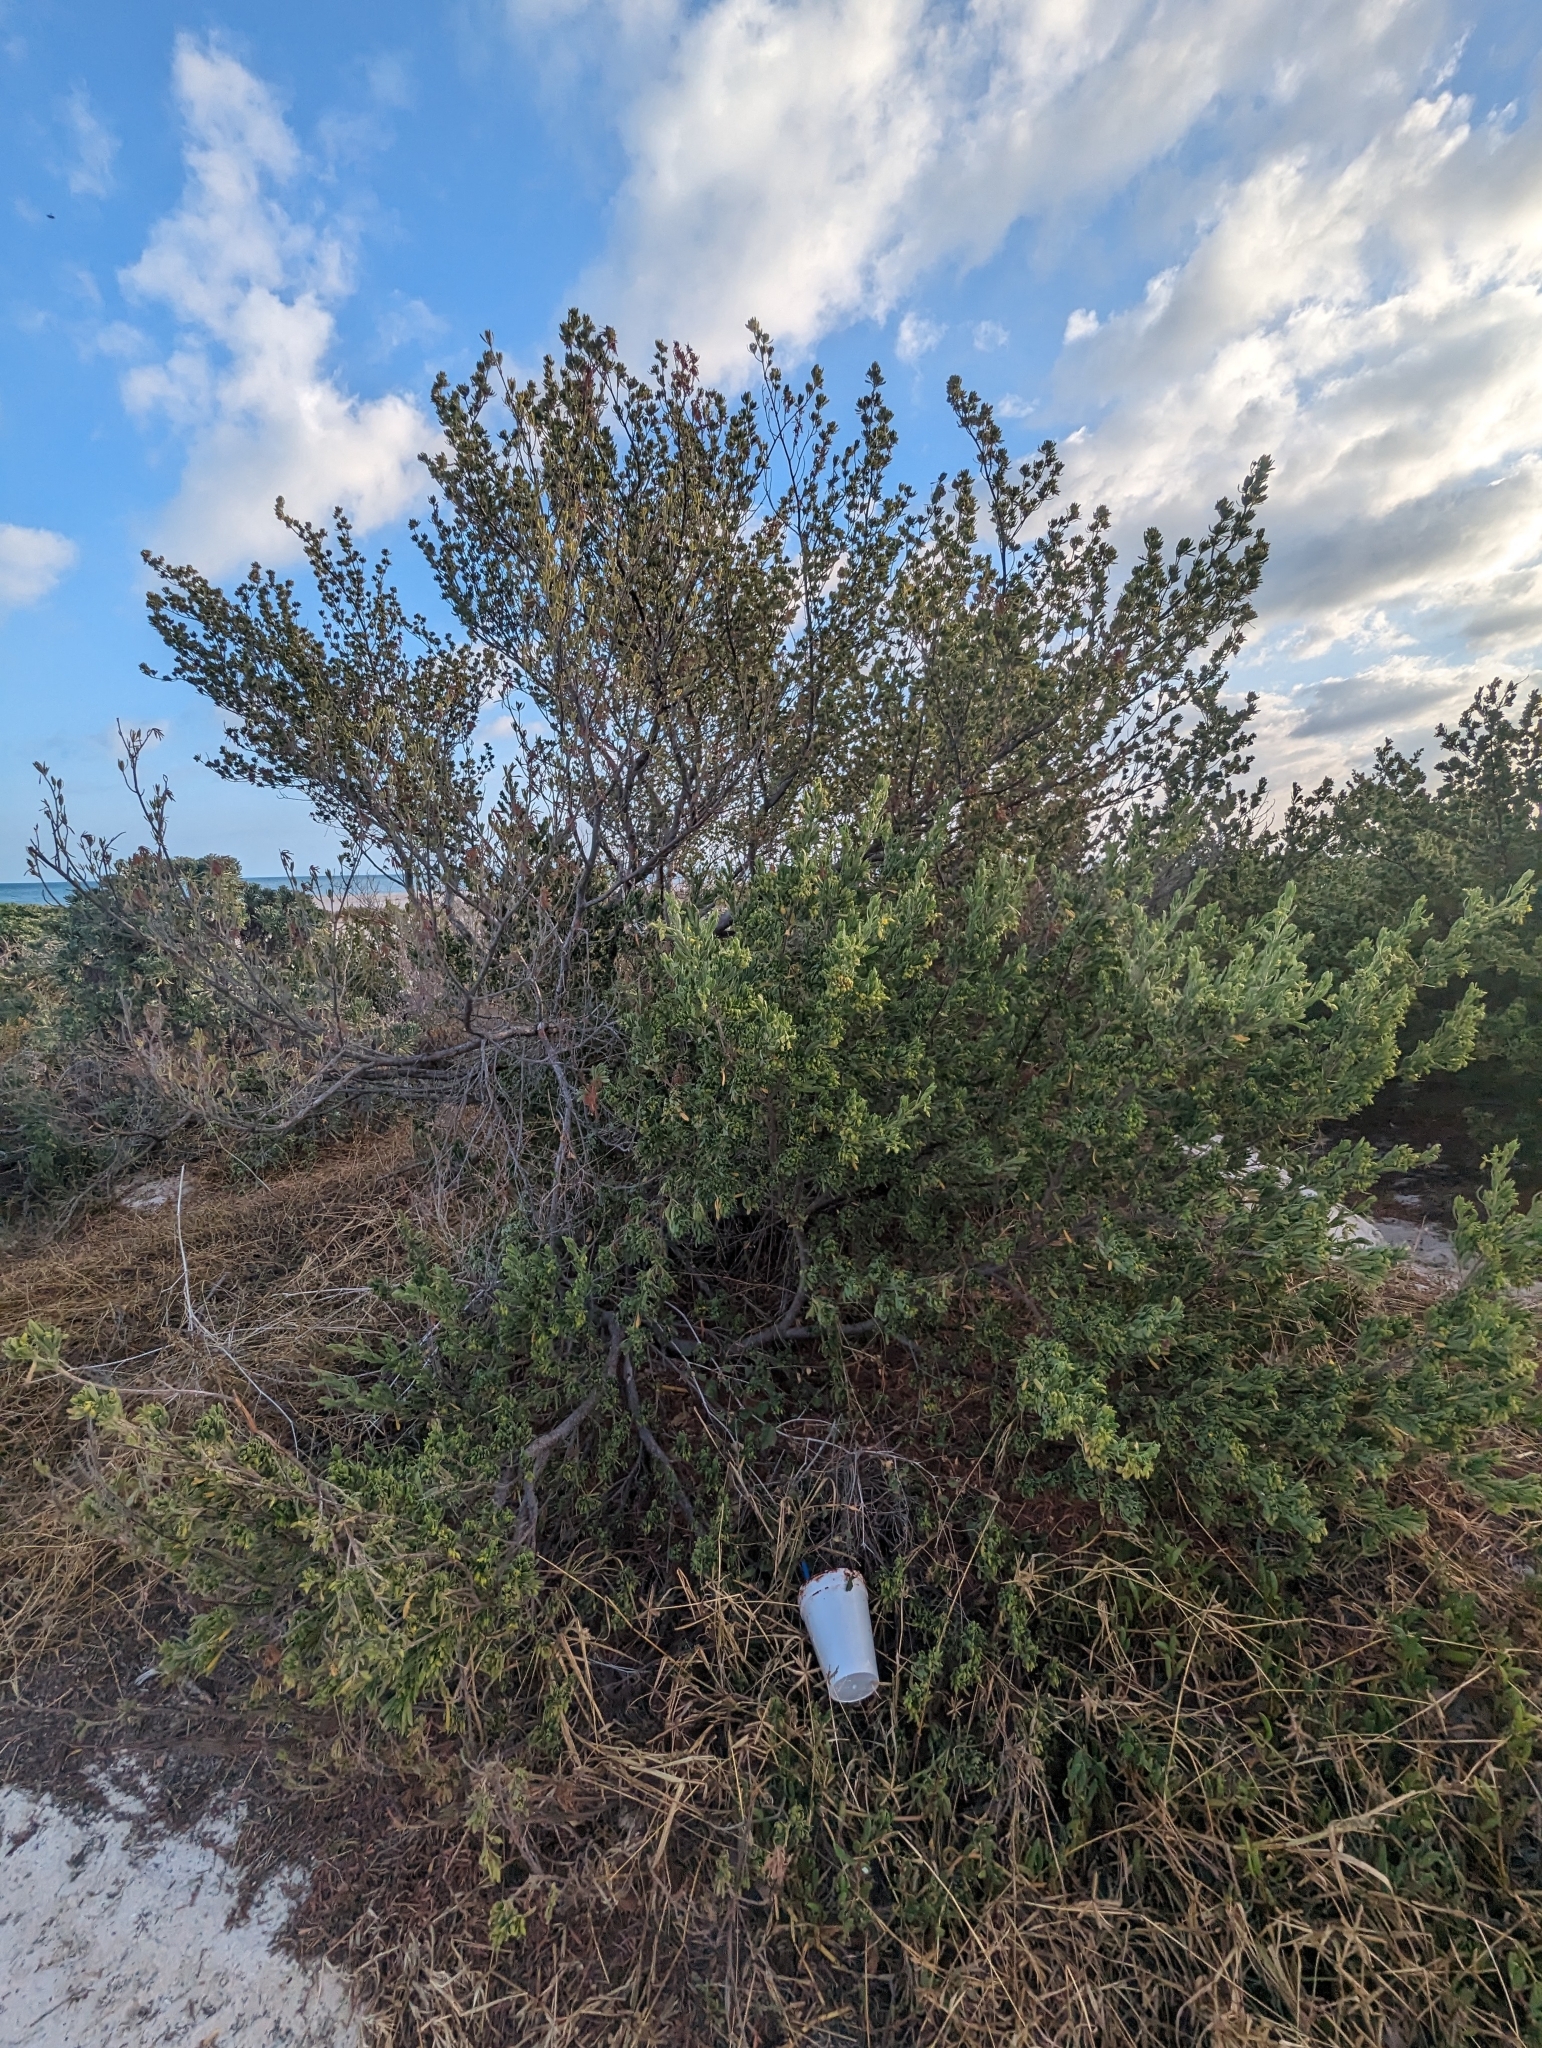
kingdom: Plantae
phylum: Tracheophyta
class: Magnoliopsida
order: Fabales
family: Surianaceae
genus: Suriana
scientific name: Suriana maritima
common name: Bay-cedar
